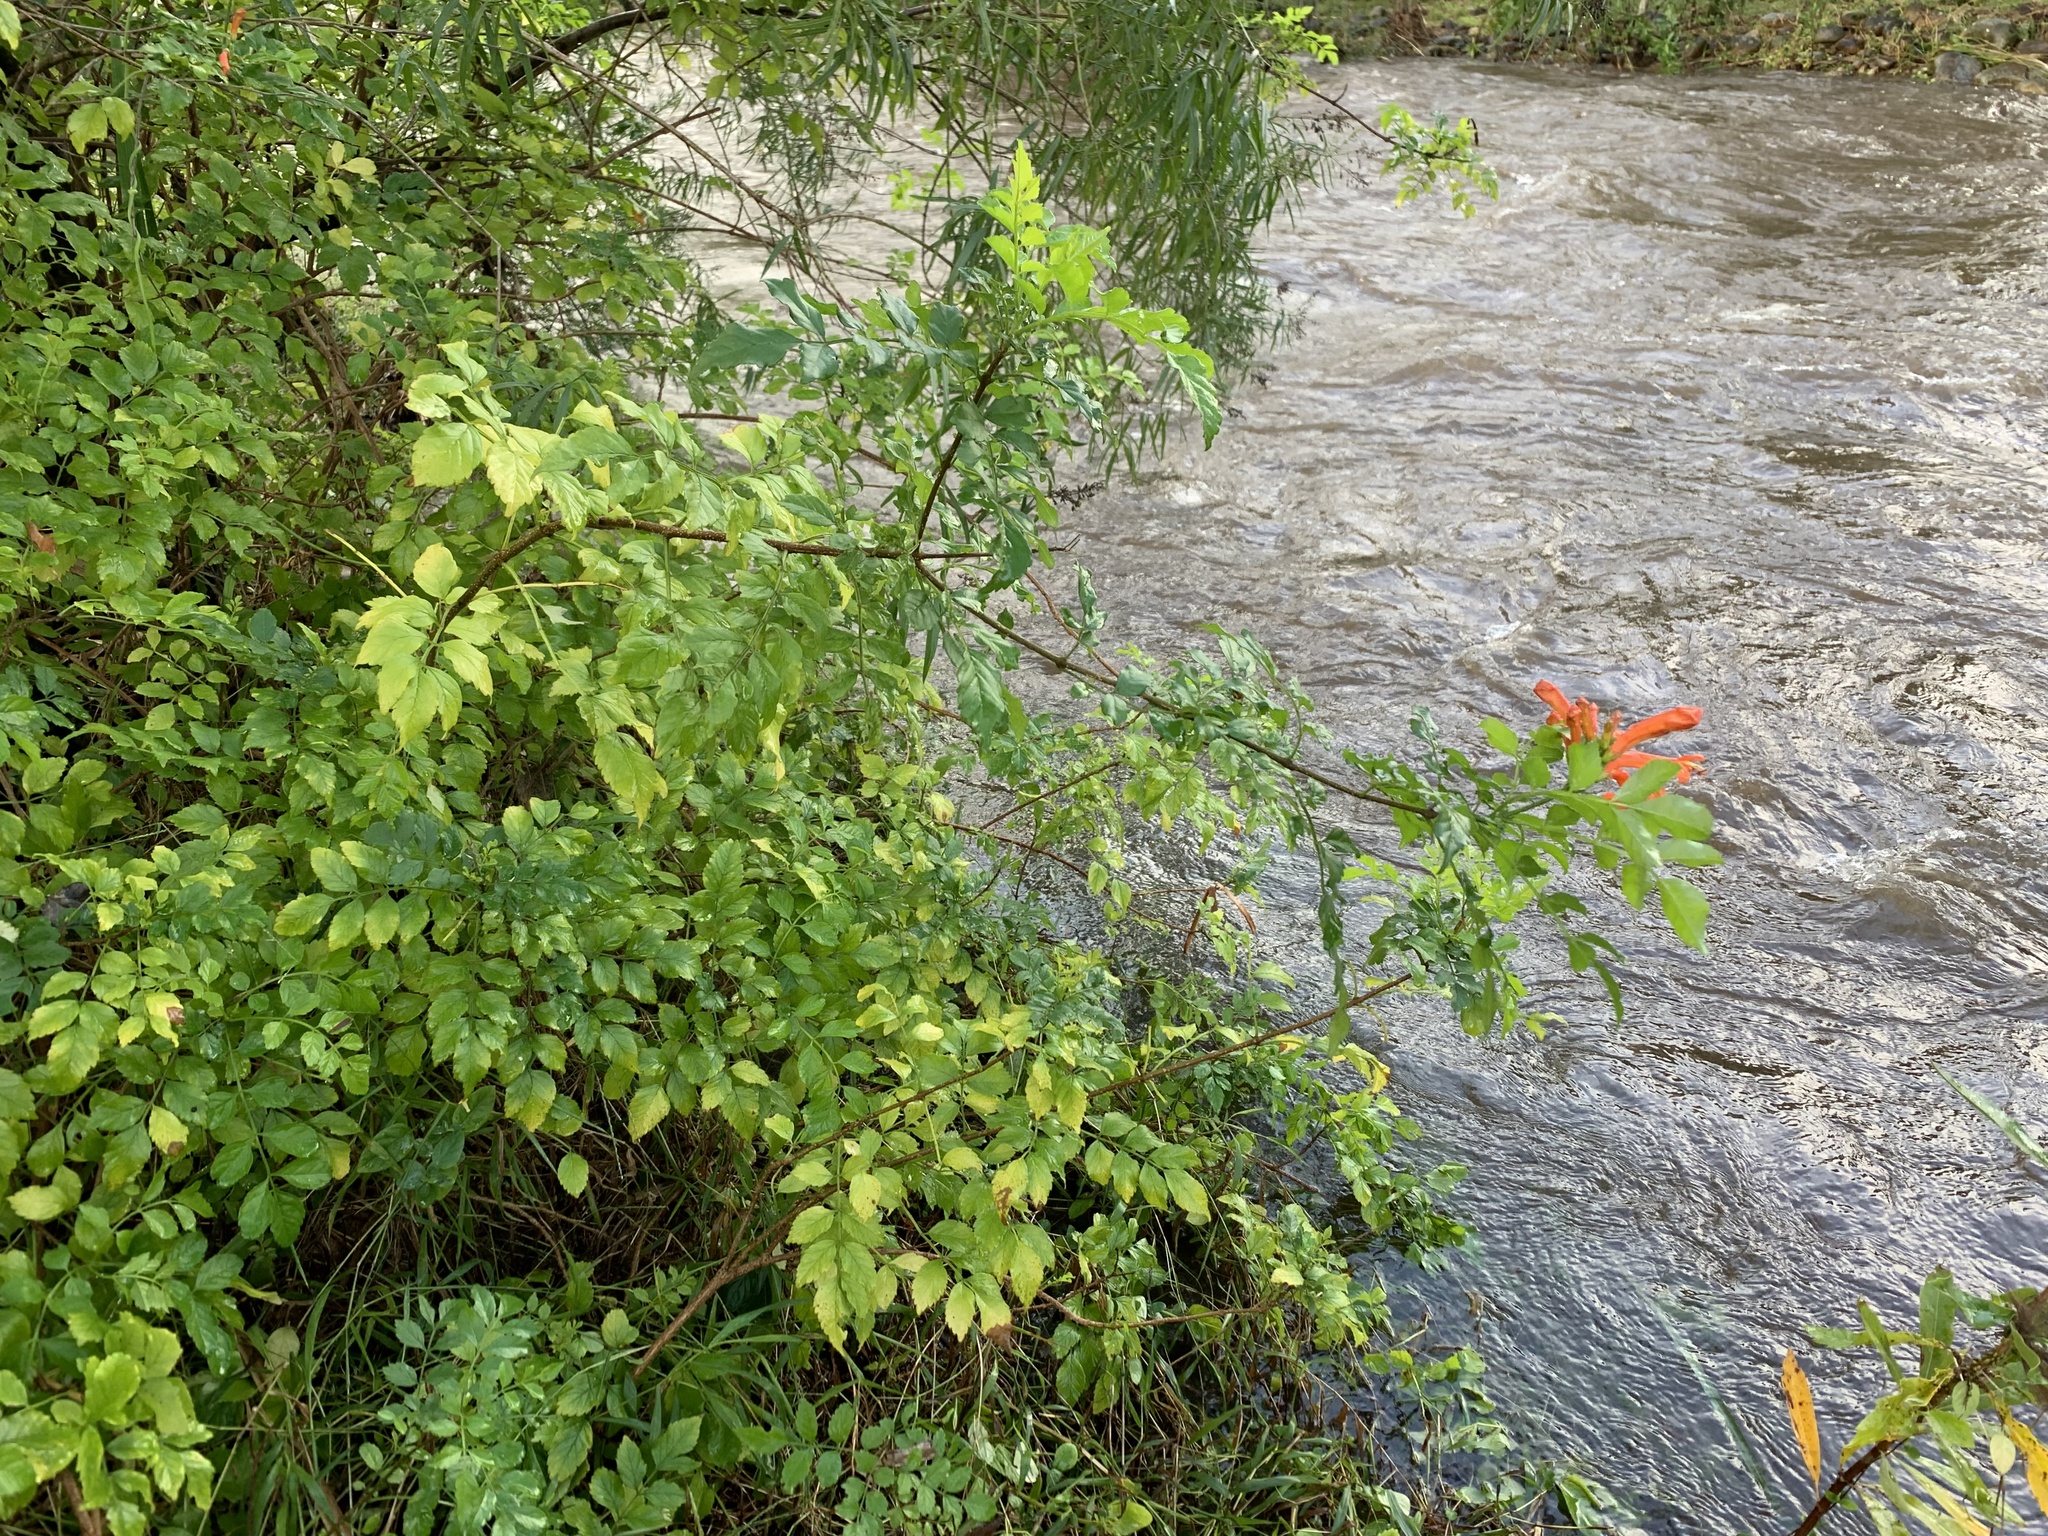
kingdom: Plantae
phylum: Tracheophyta
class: Magnoliopsida
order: Lamiales
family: Bignoniaceae
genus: Tecomaria
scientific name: Tecomaria capensis
